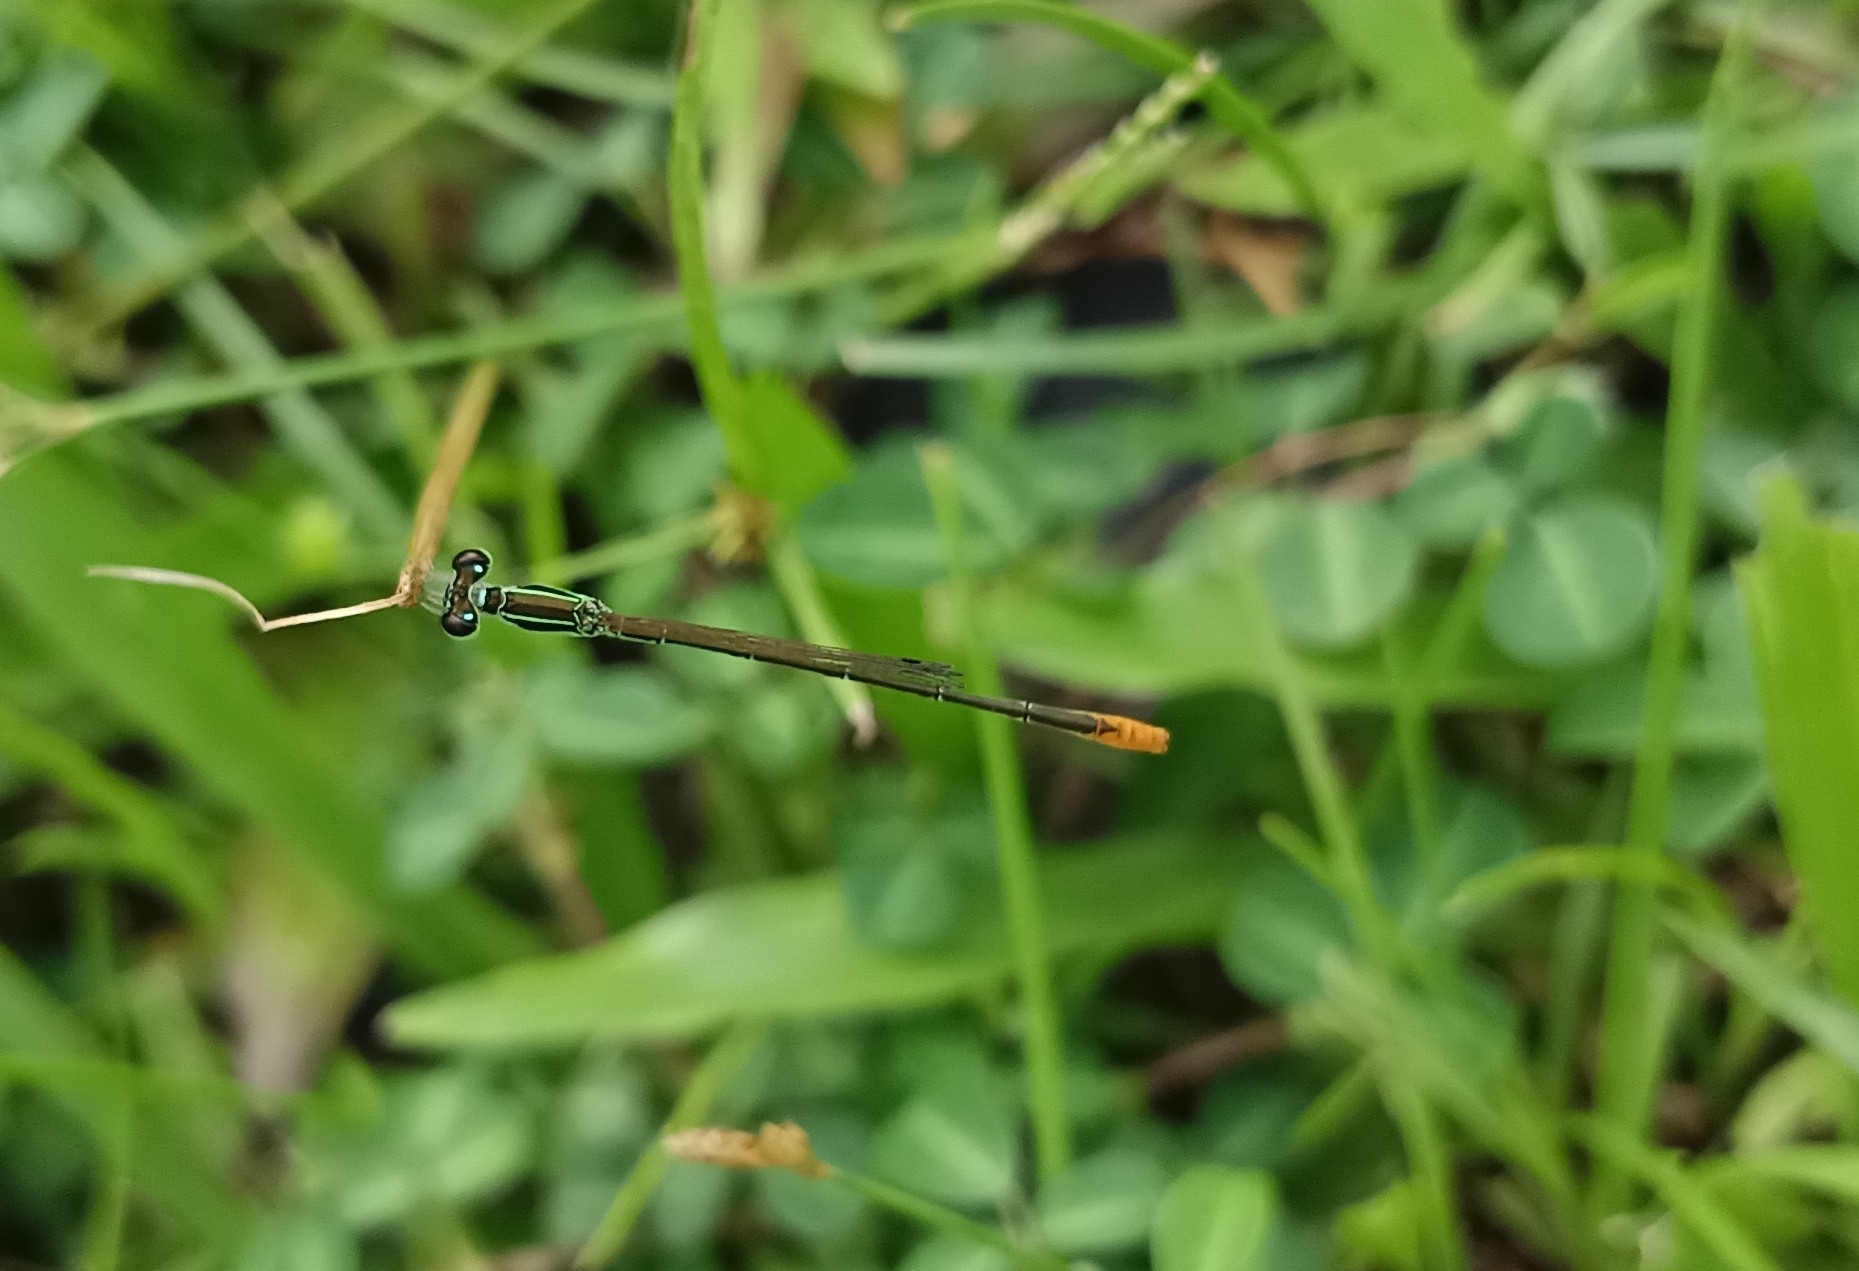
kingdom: Animalia
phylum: Arthropoda
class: Insecta
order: Odonata
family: Coenagrionidae
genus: Agriocnemis
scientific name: Agriocnemis pygmaea
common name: Pygmy wisp
